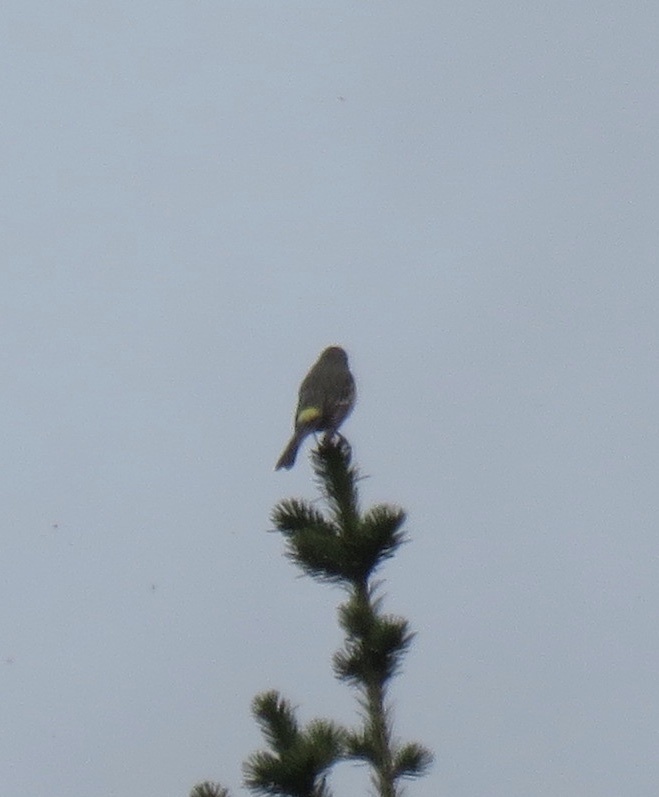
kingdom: Animalia
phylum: Chordata
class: Aves
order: Passeriformes
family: Parulidae
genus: Setophaga
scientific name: Setophaga coronata
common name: Myrtle warbler
